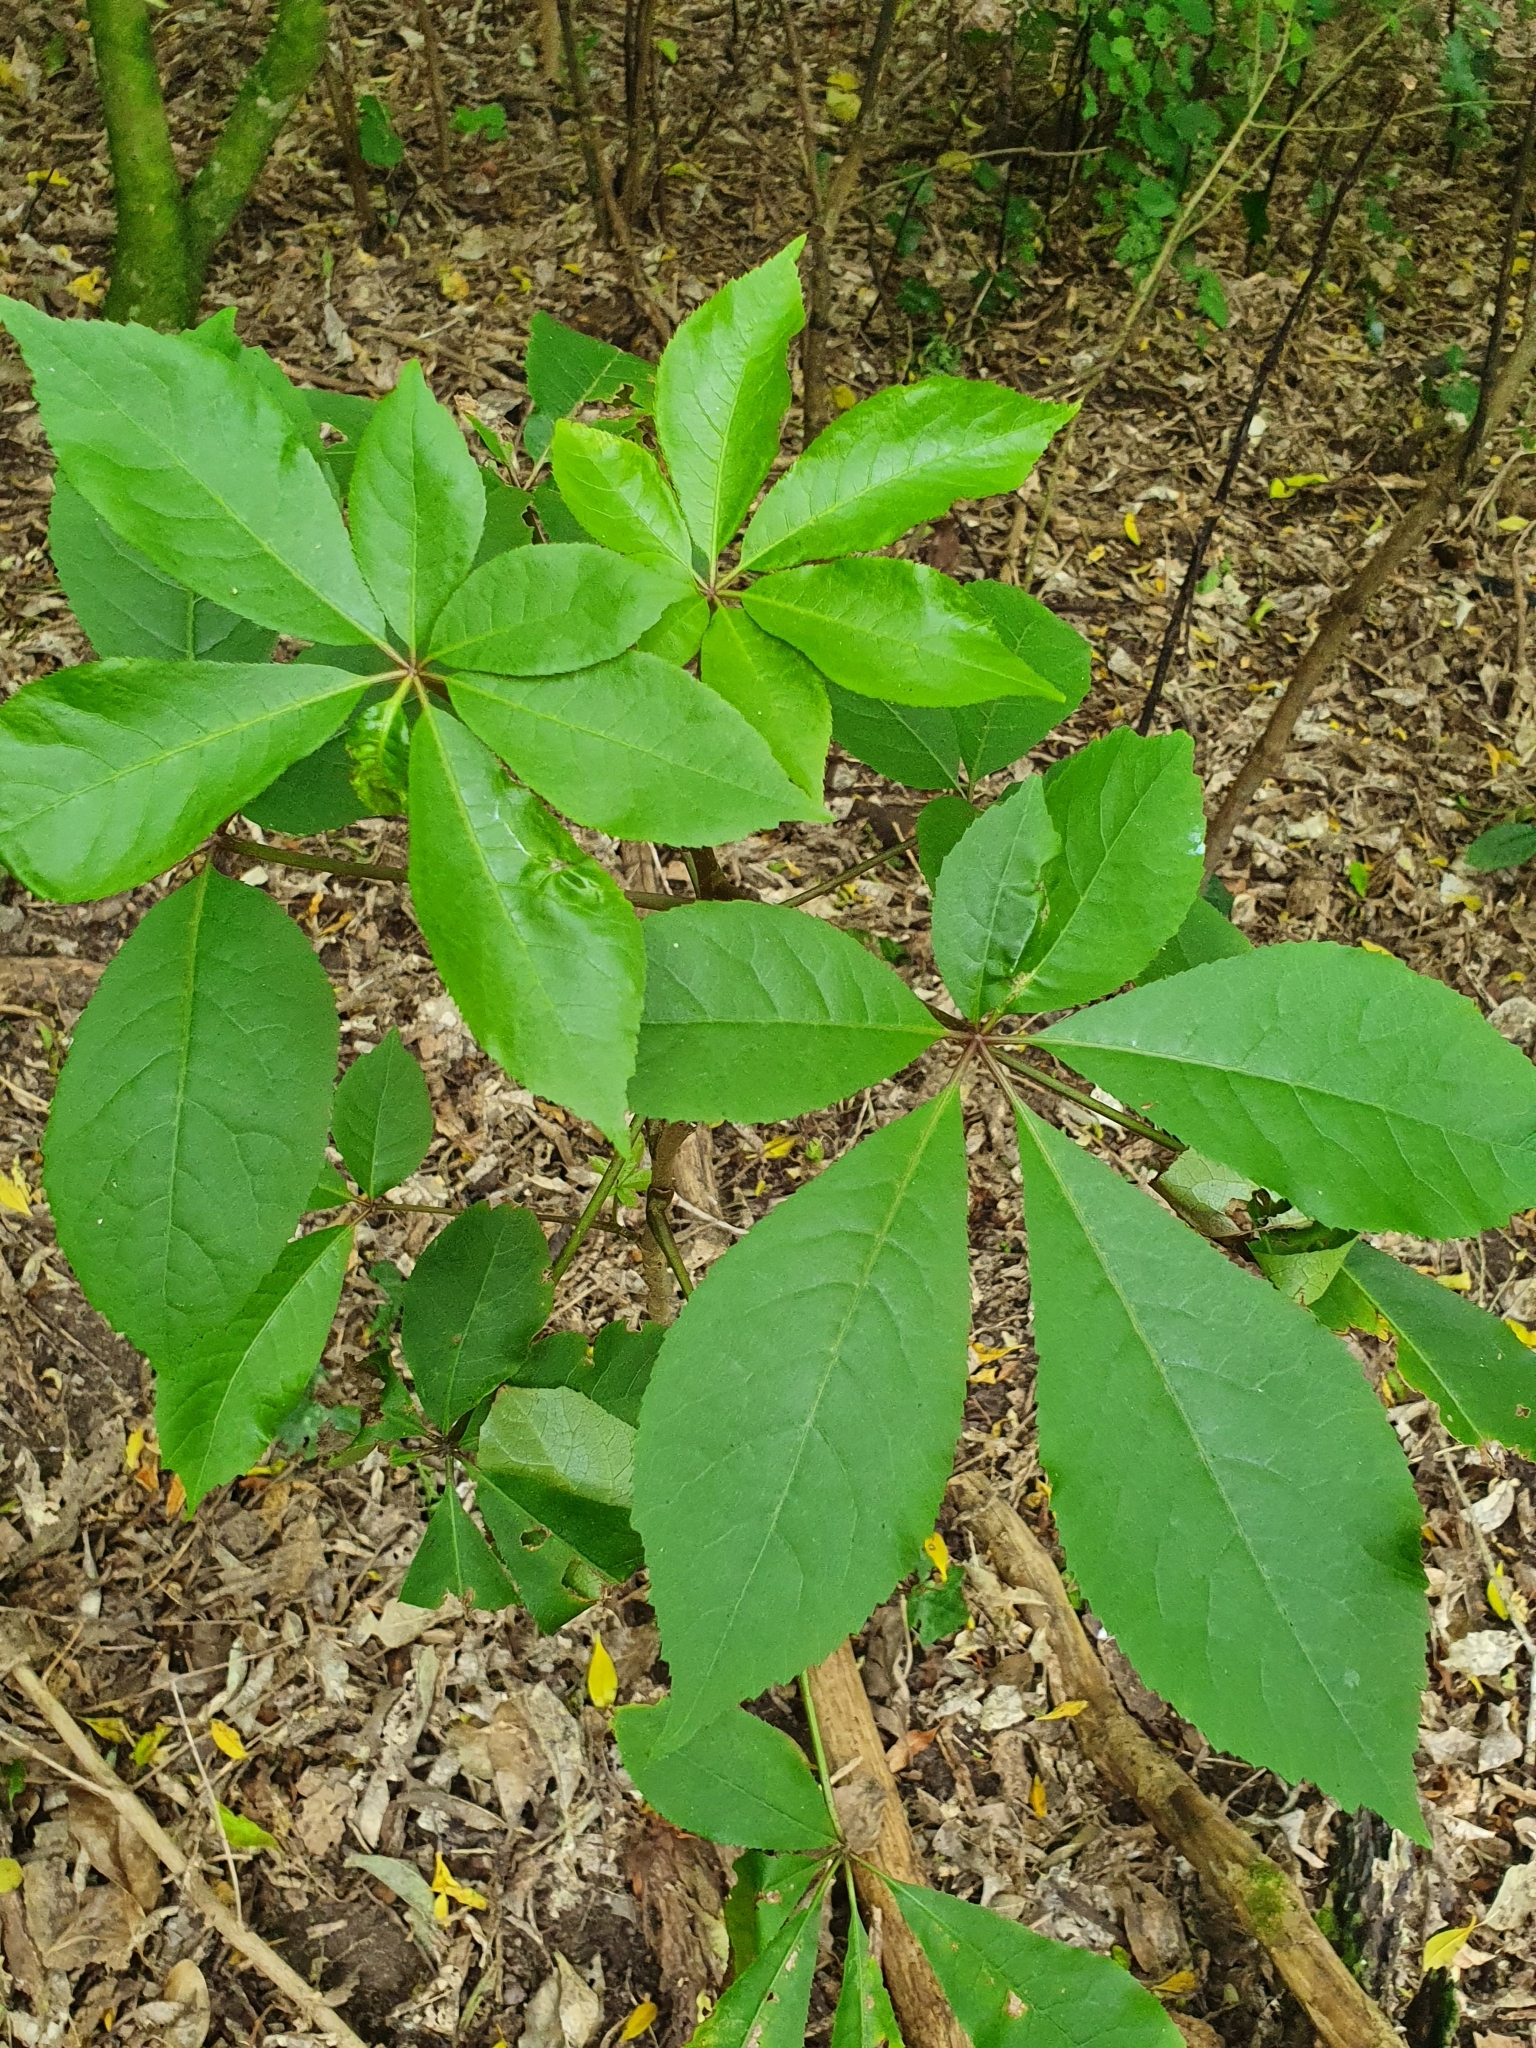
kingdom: Plantae
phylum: Tracheophyta
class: Magnoliopsida
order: Apiales
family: Araliaceae
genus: Schefflera
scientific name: Schefflera digitata
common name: Pate
